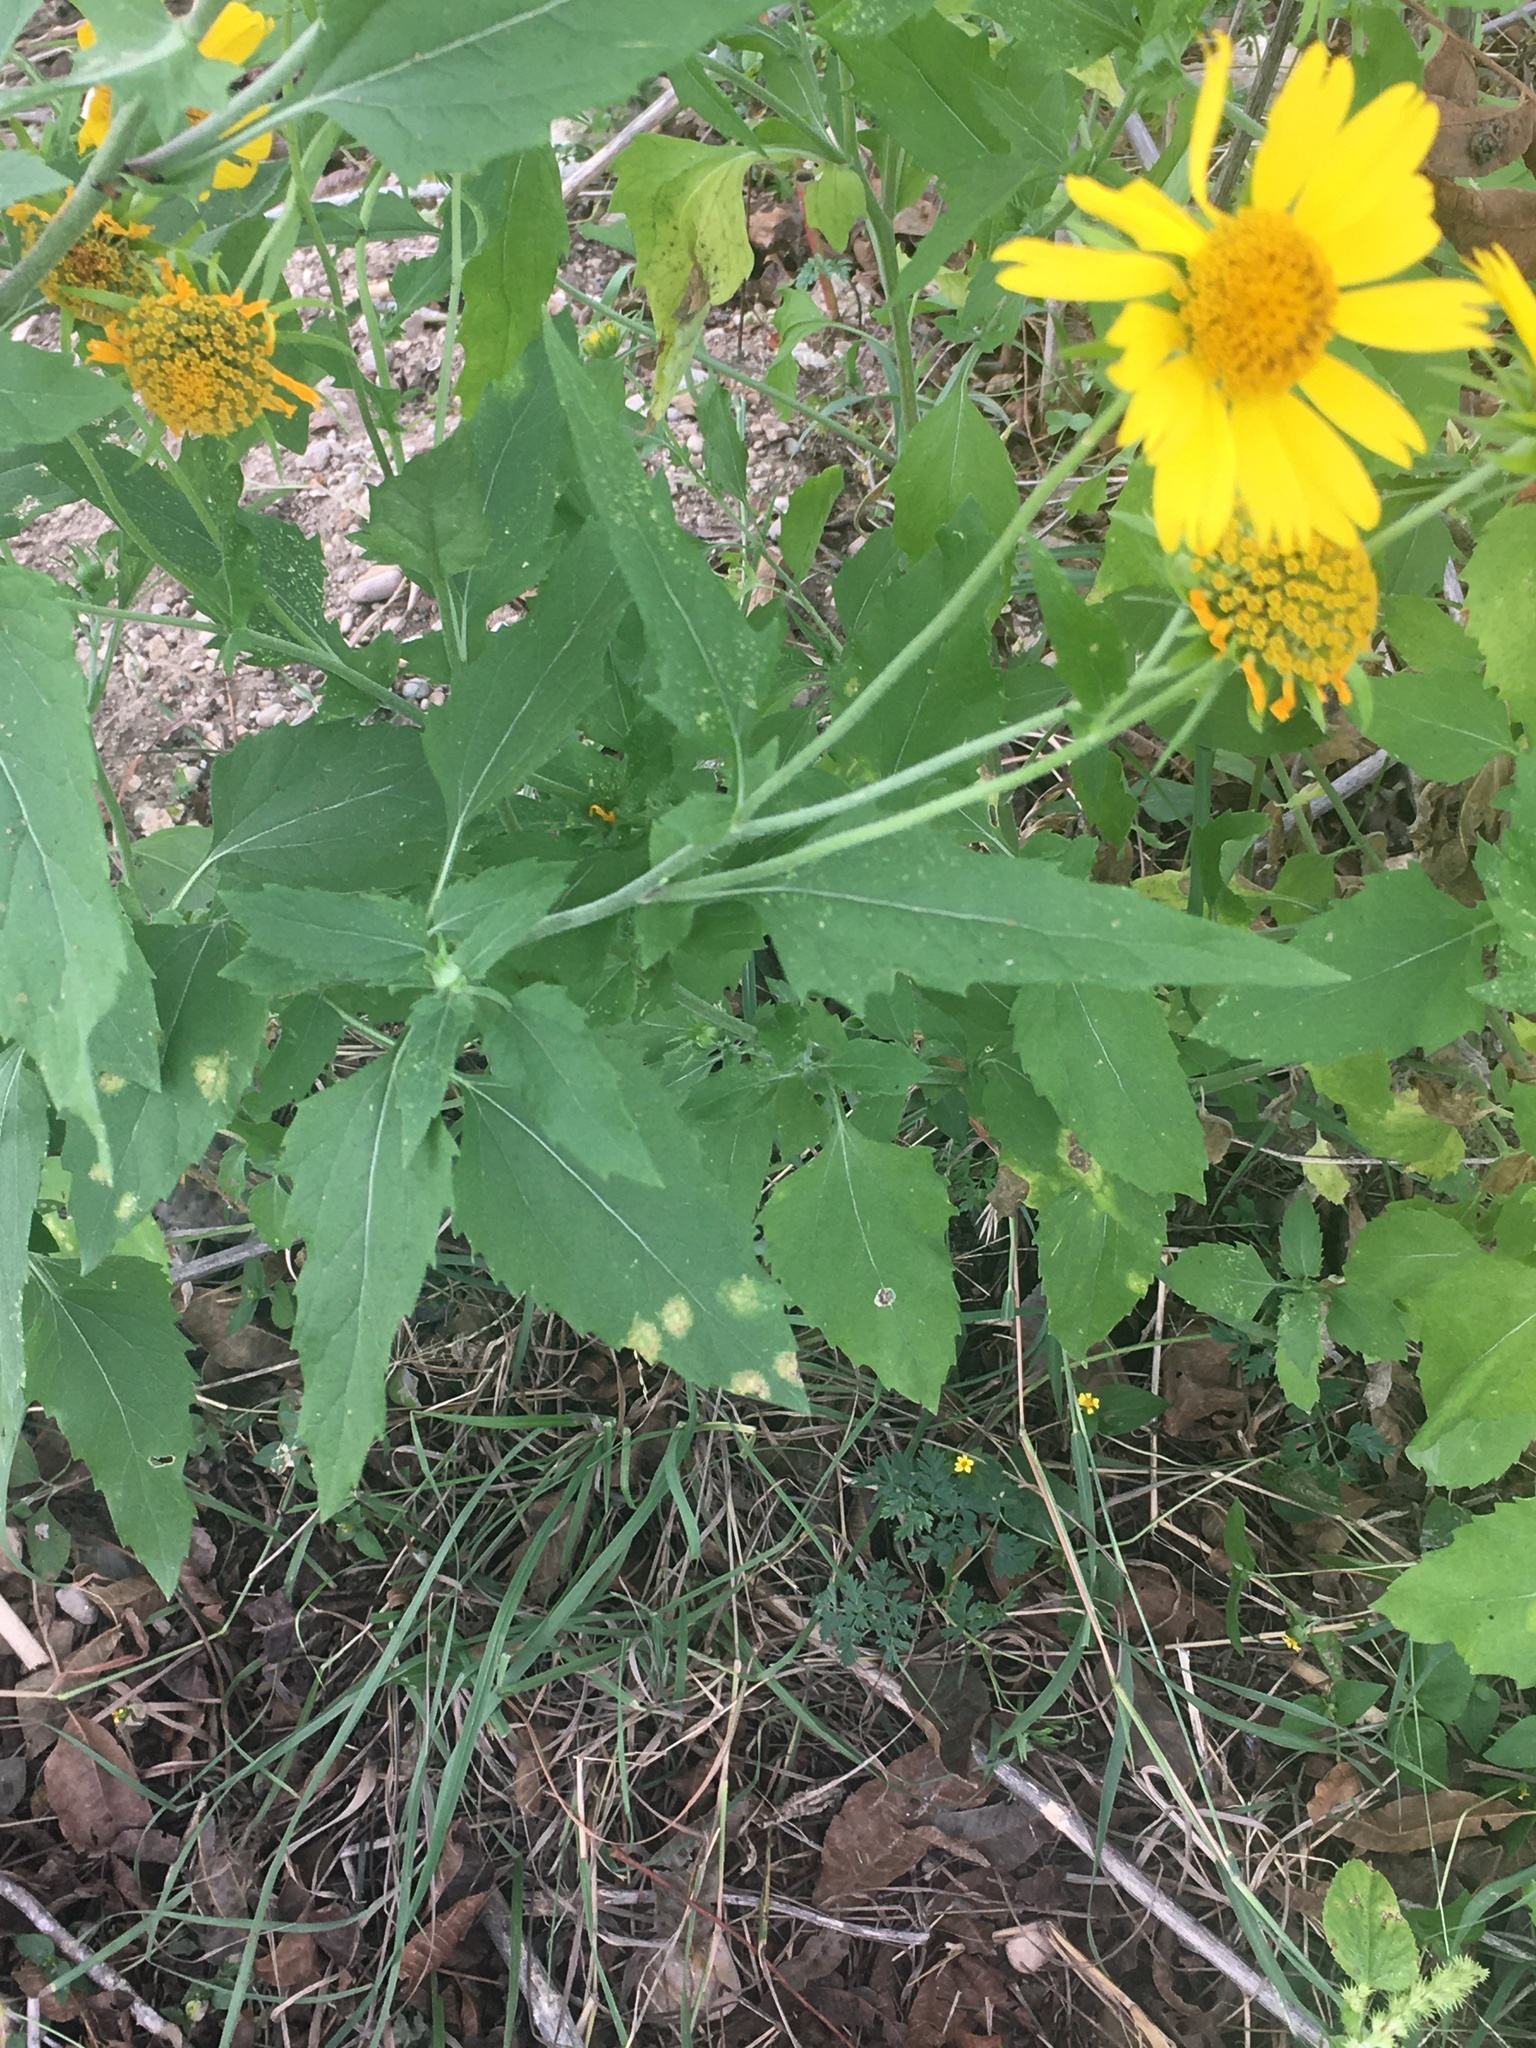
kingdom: Plantae
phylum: Tracheophyta
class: Magnoliopsida
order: Asterales
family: Asteraceae
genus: Verbesina
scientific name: Verbesina encelioides
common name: Golden crownbeard
